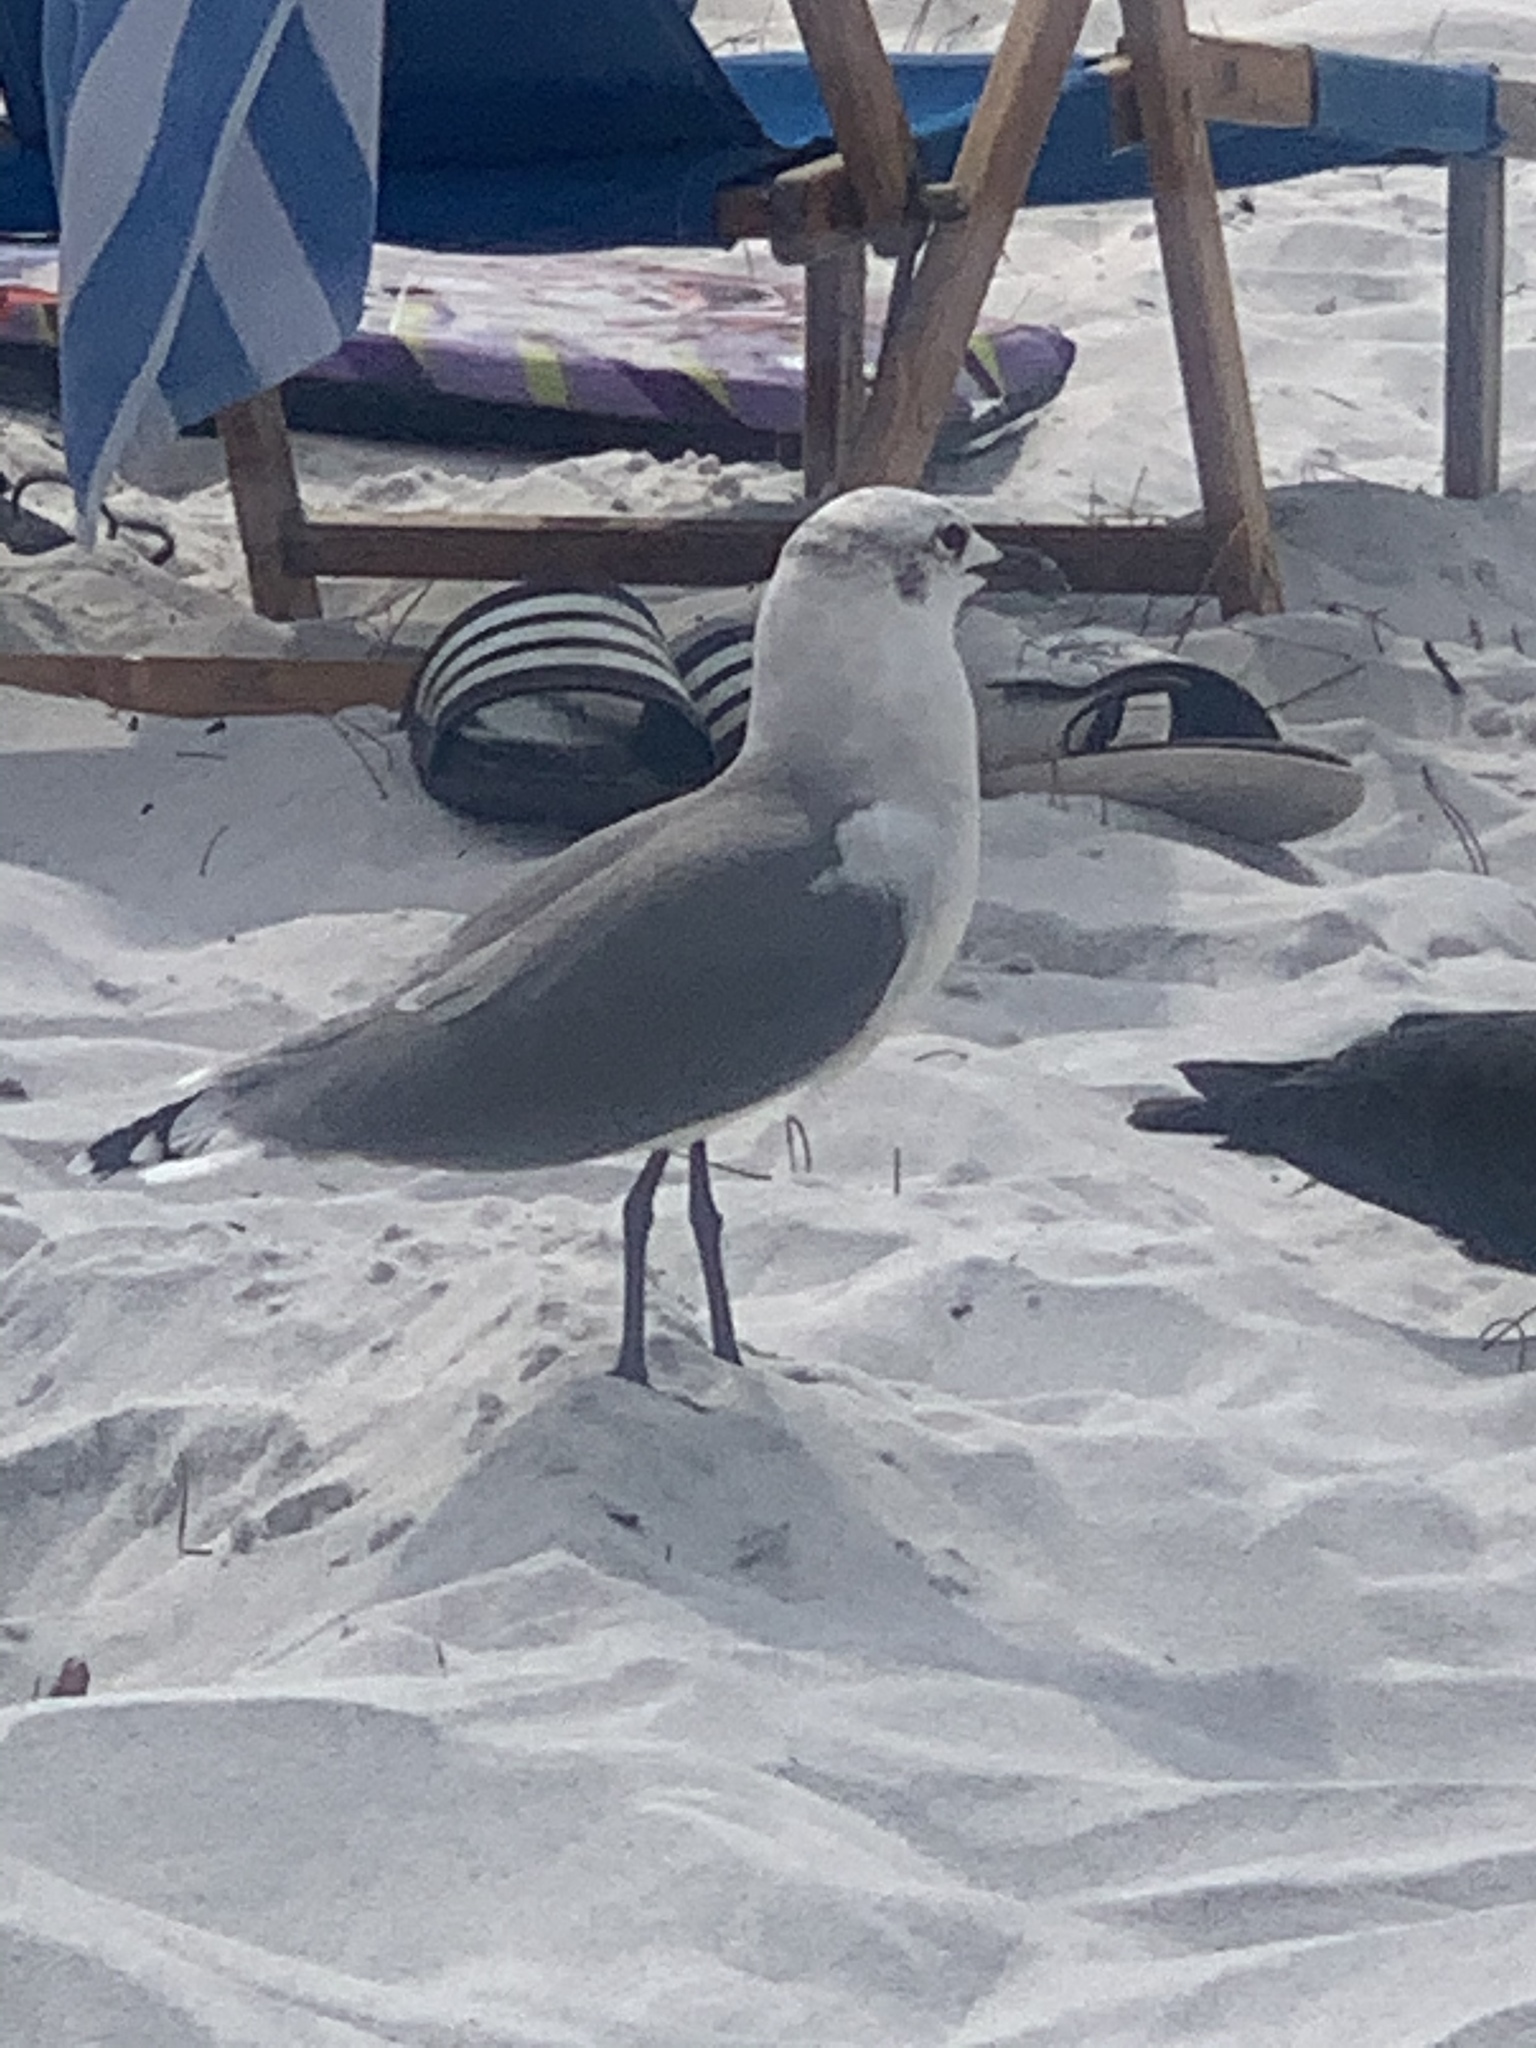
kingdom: Animalia
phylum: Chordata
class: Aves
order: Charadriiformes
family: Laridae
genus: Leucophaeus
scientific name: Leucophaeus atricilla
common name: Laughing gull
